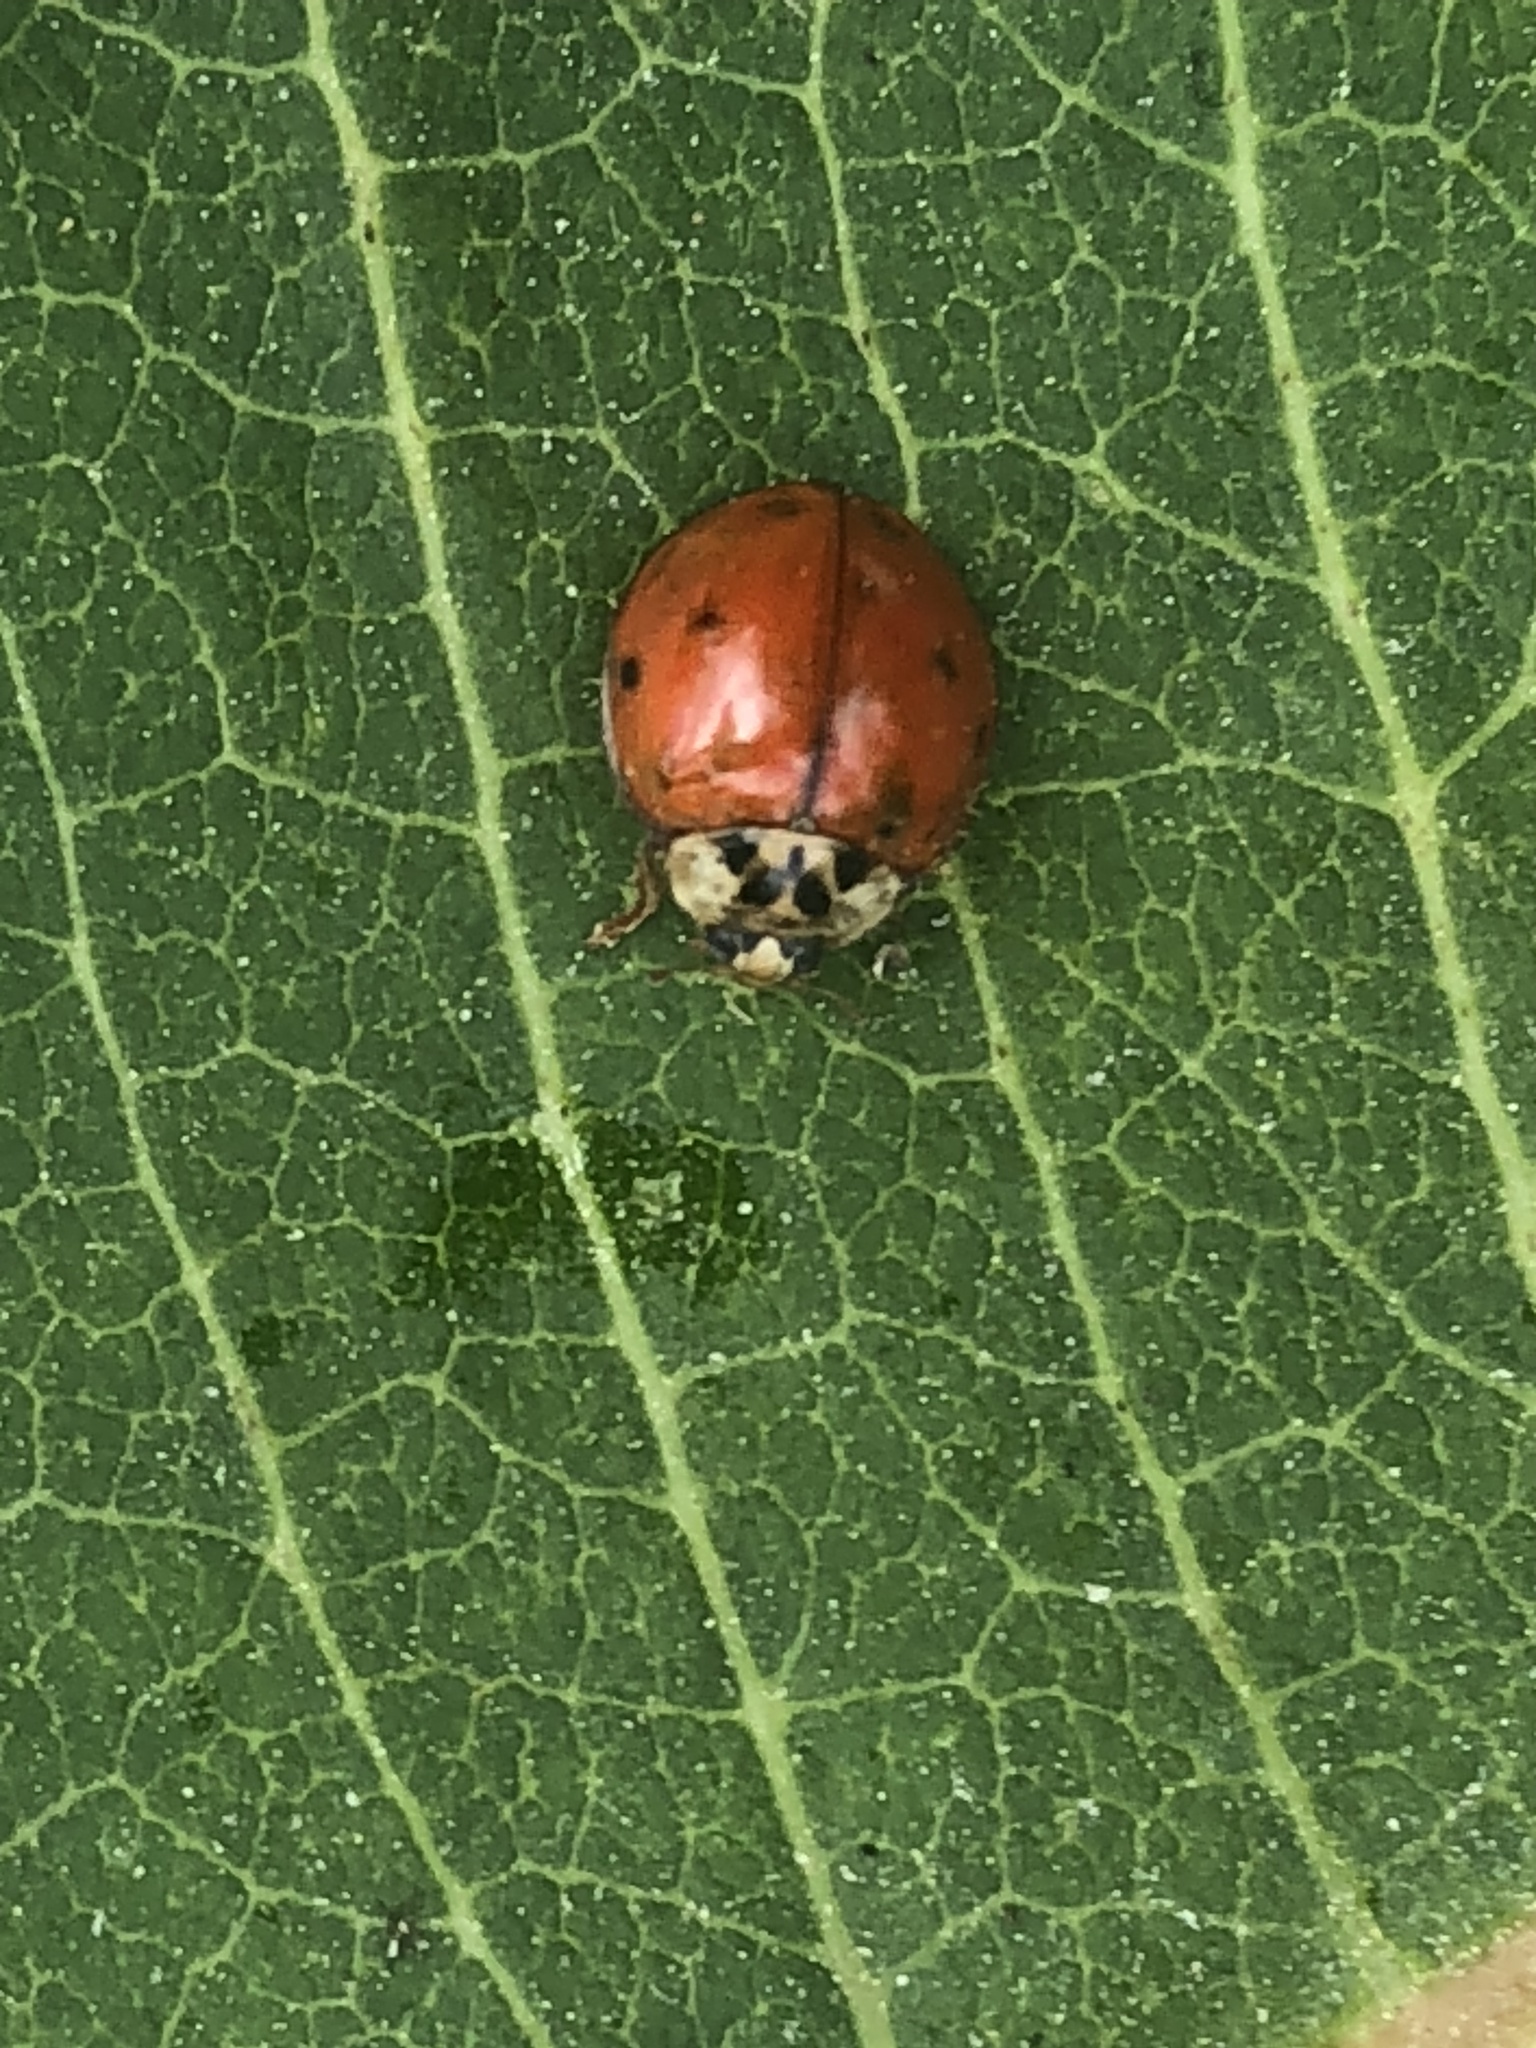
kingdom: Animalia
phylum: Arthropoda
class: Insecta
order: Coleoptera
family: Coccinellidae
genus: Harmonia
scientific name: Harmonia axyridis
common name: Harlequin ladybird
